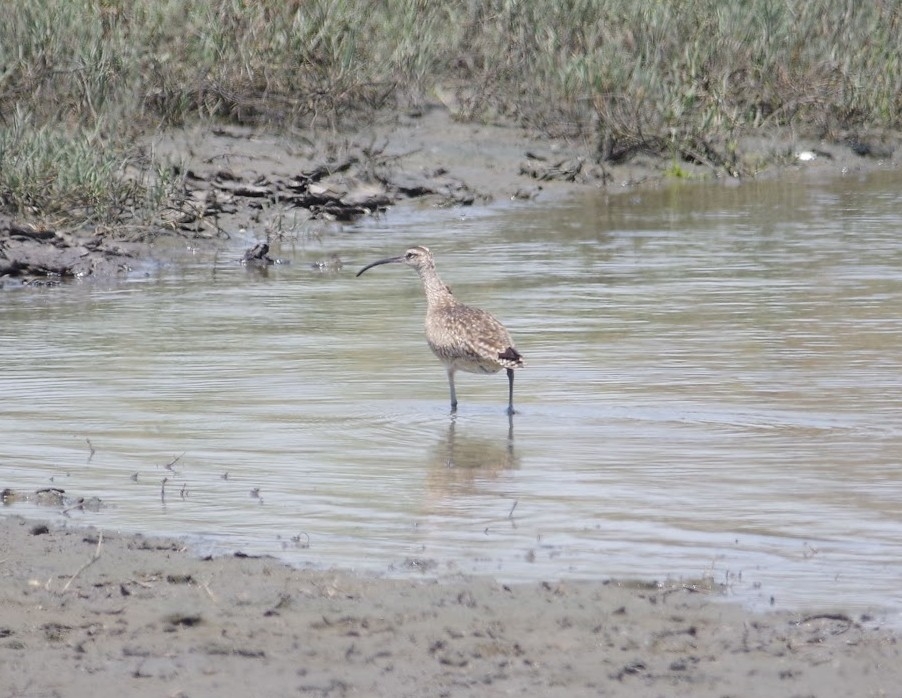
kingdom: Animalia
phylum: Chordata
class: Aves
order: Charadriiformes
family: Scolopacidae
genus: Numenius
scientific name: Numenius phaeopus
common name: Whimbrel
